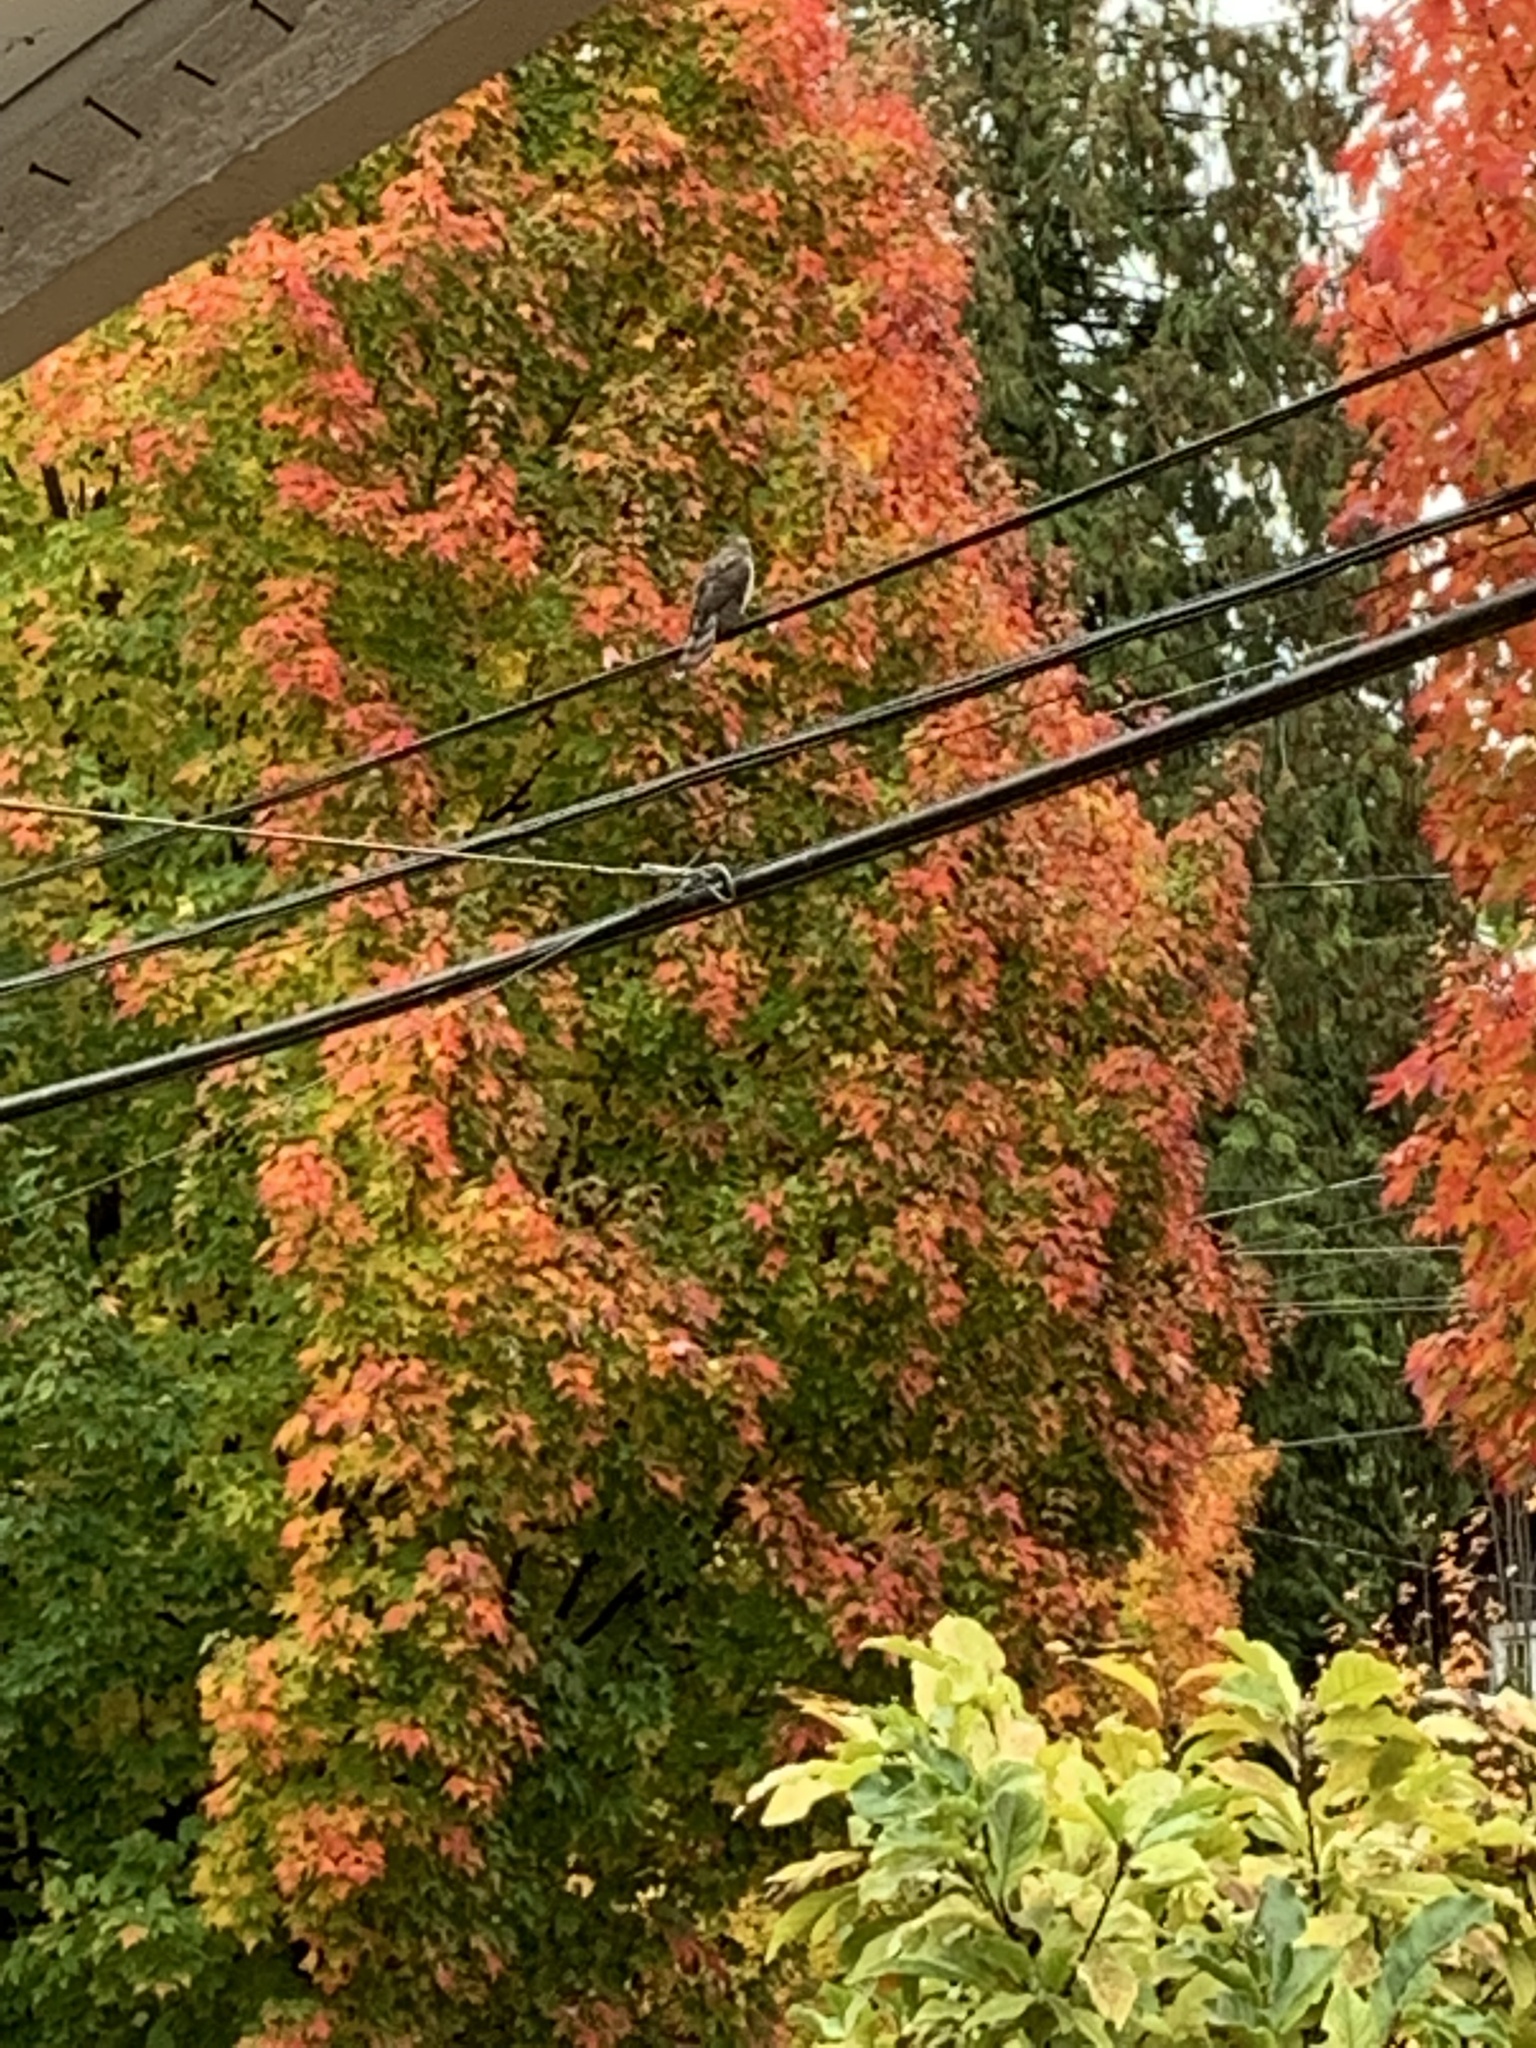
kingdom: Animalia
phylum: Chordata
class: Aves
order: Accipitriformes
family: Accipitridae
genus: Accipiter
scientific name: Accipiter cooperii
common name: Cooper's hawk
